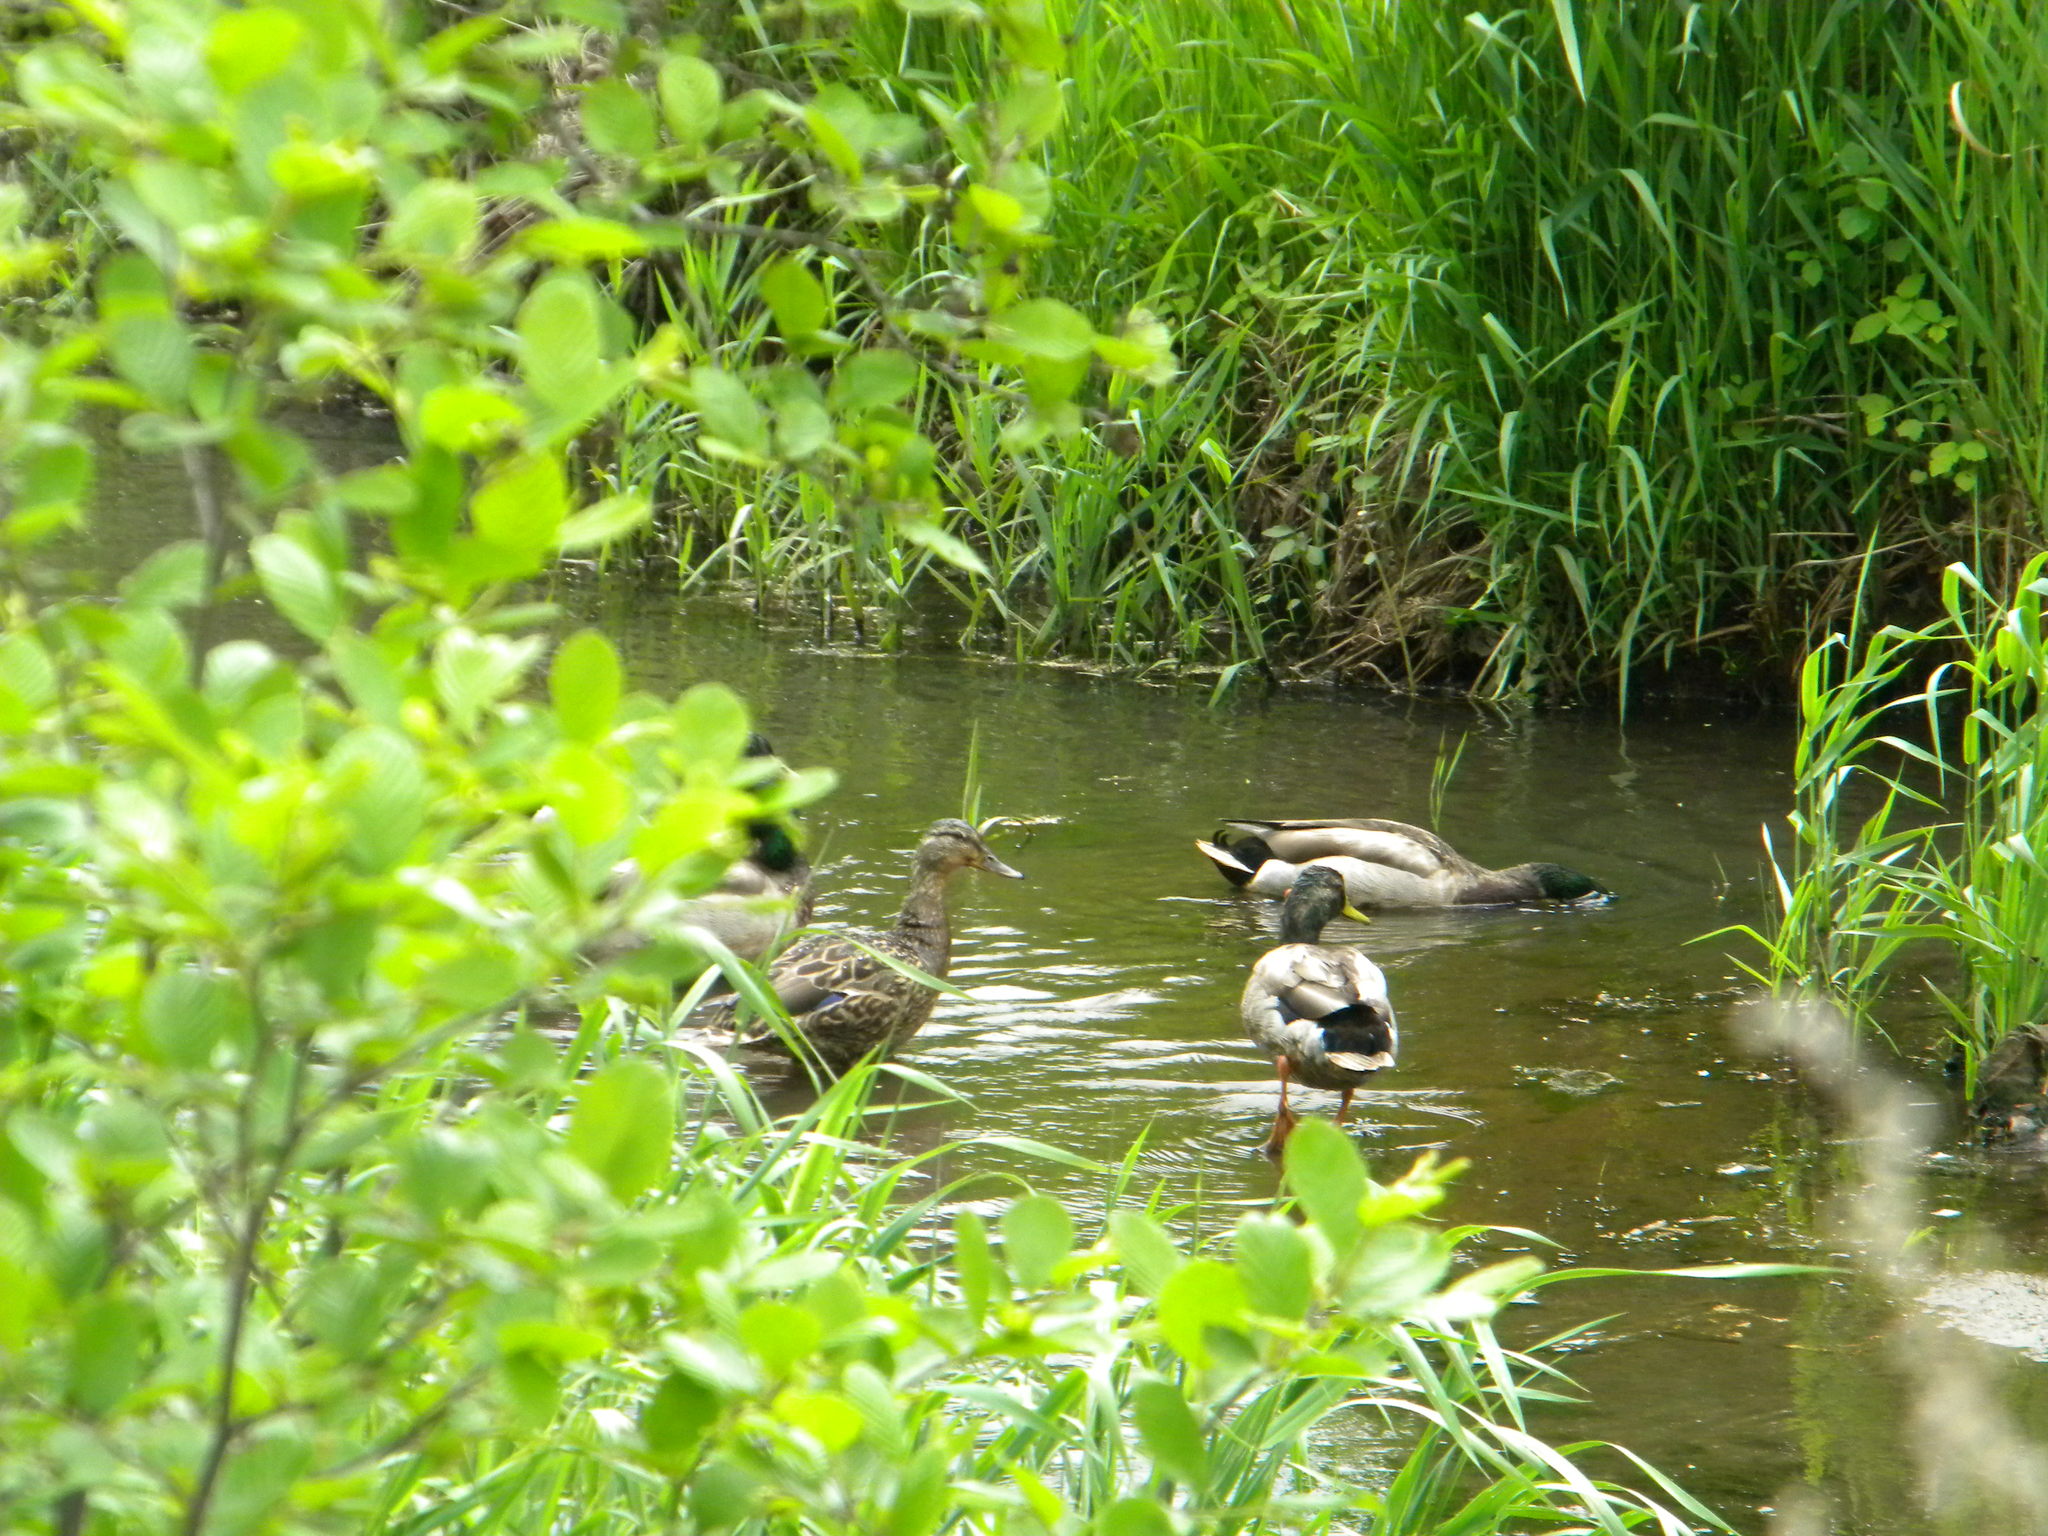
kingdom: Animalia
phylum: Chordata
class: Aves
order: Anseriformes
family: Anatidae
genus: Anas
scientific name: Anas platyrhynchos
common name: Mallard
